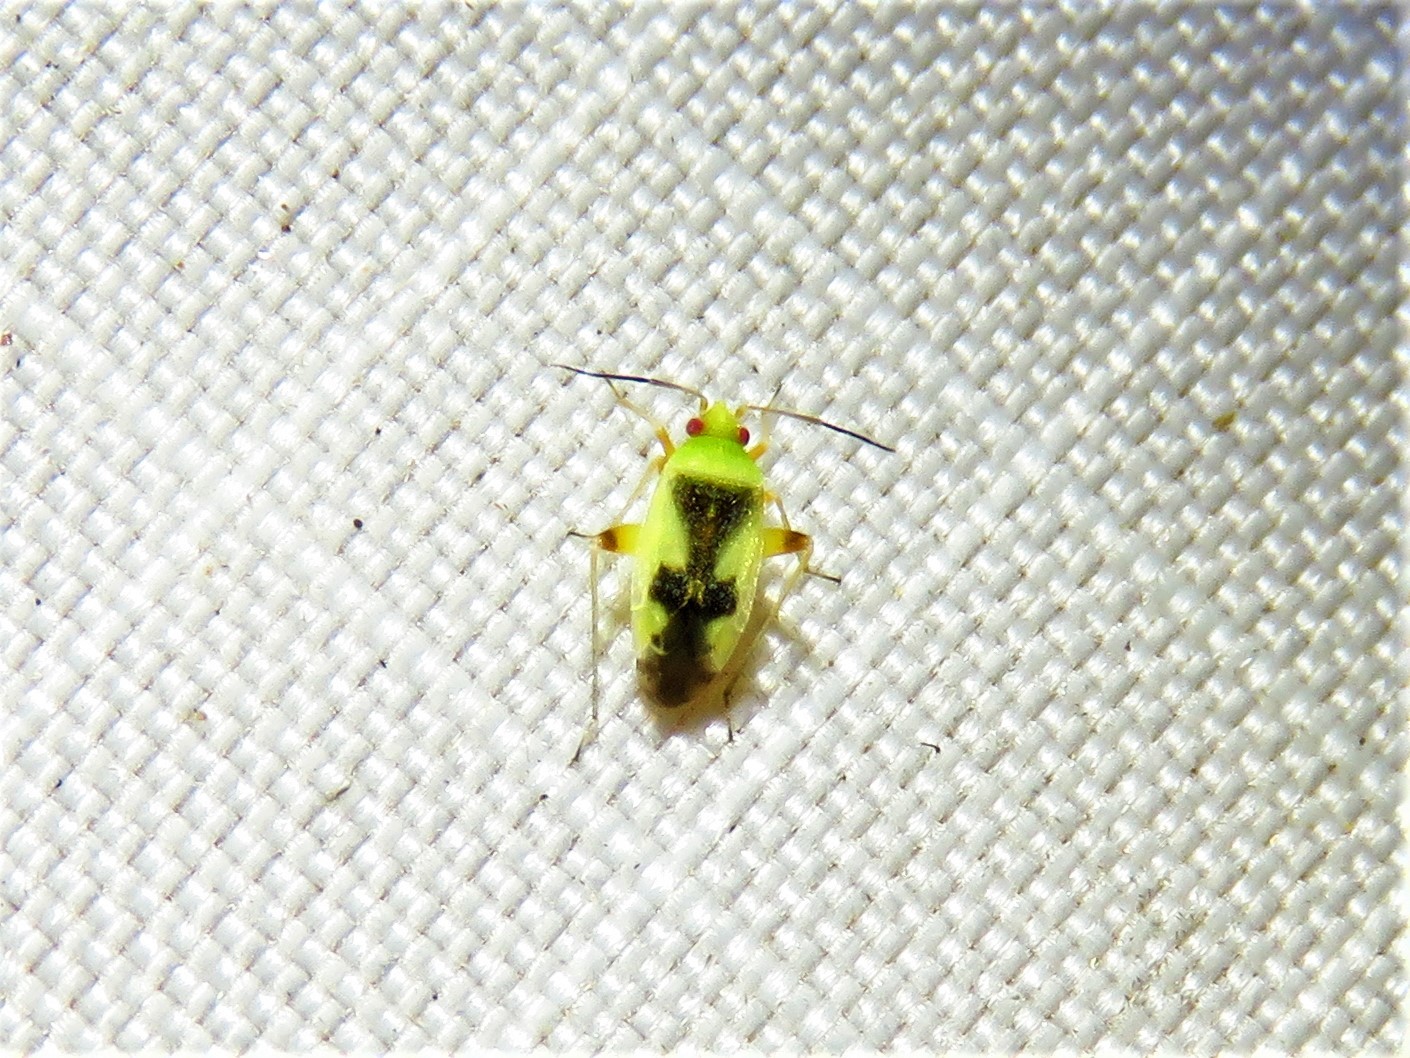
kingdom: Animalia
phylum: Arthropoda
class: Insecta
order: Hemiptera
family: Miridae
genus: Reuteroscopus
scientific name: Reuteroscopus femoralis
